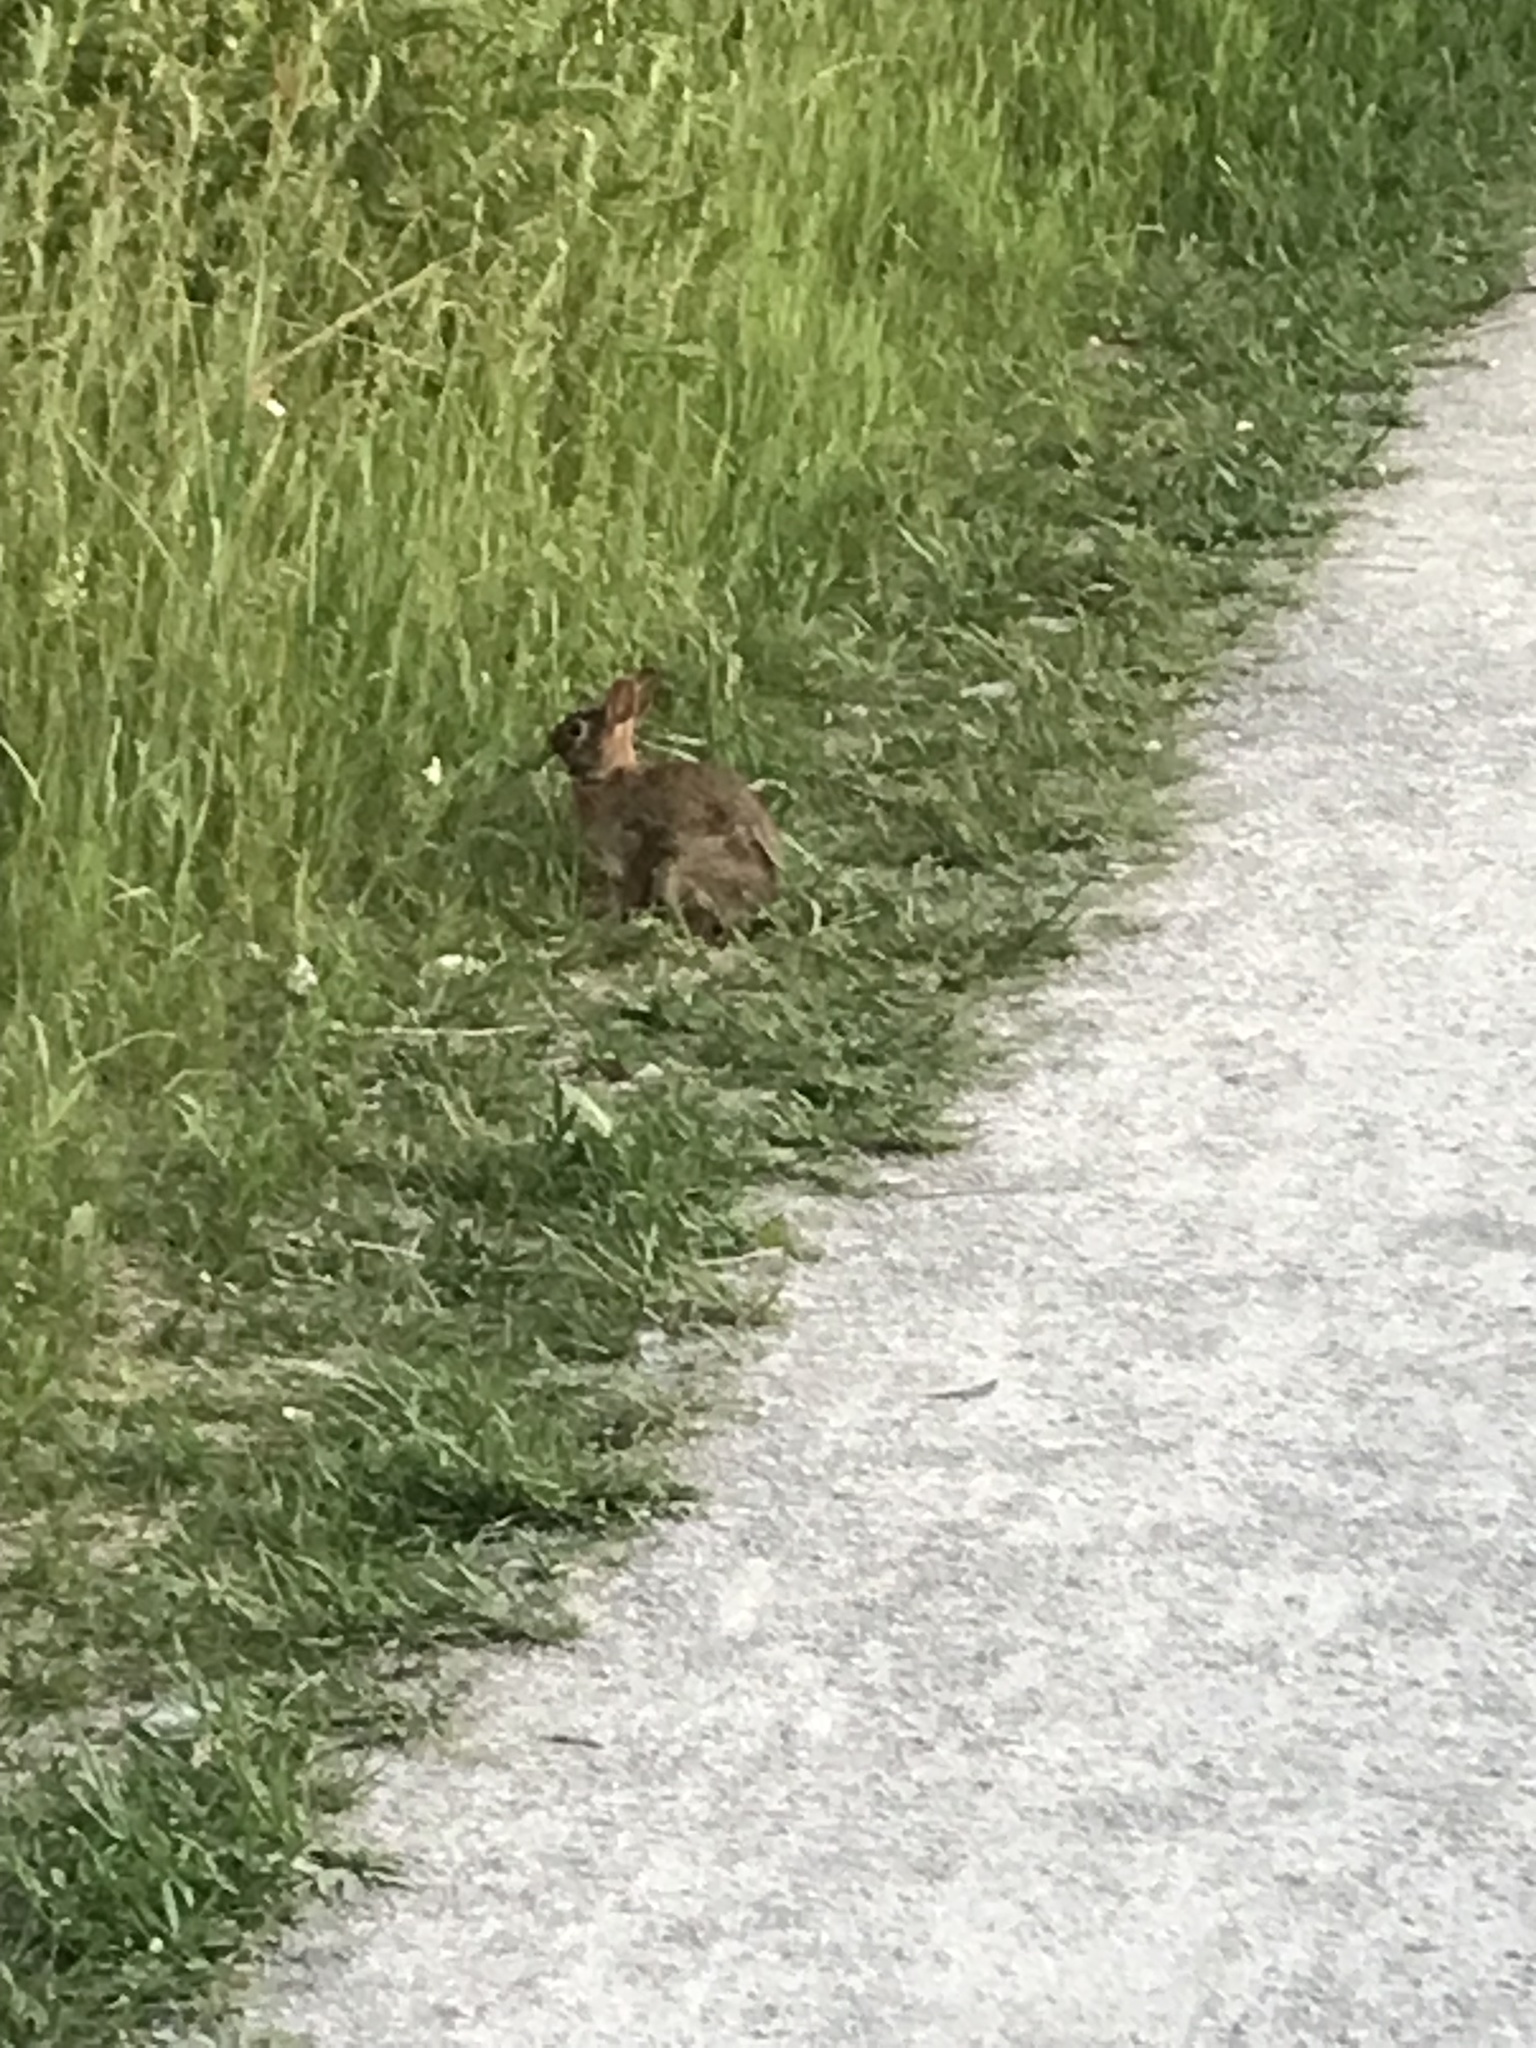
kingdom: Animalia
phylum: Chordata
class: Mammalia
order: Lagomorpha
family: Leporidae
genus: Sylvilagus
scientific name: Sylvilagus floridanus
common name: Eastern cottontail
